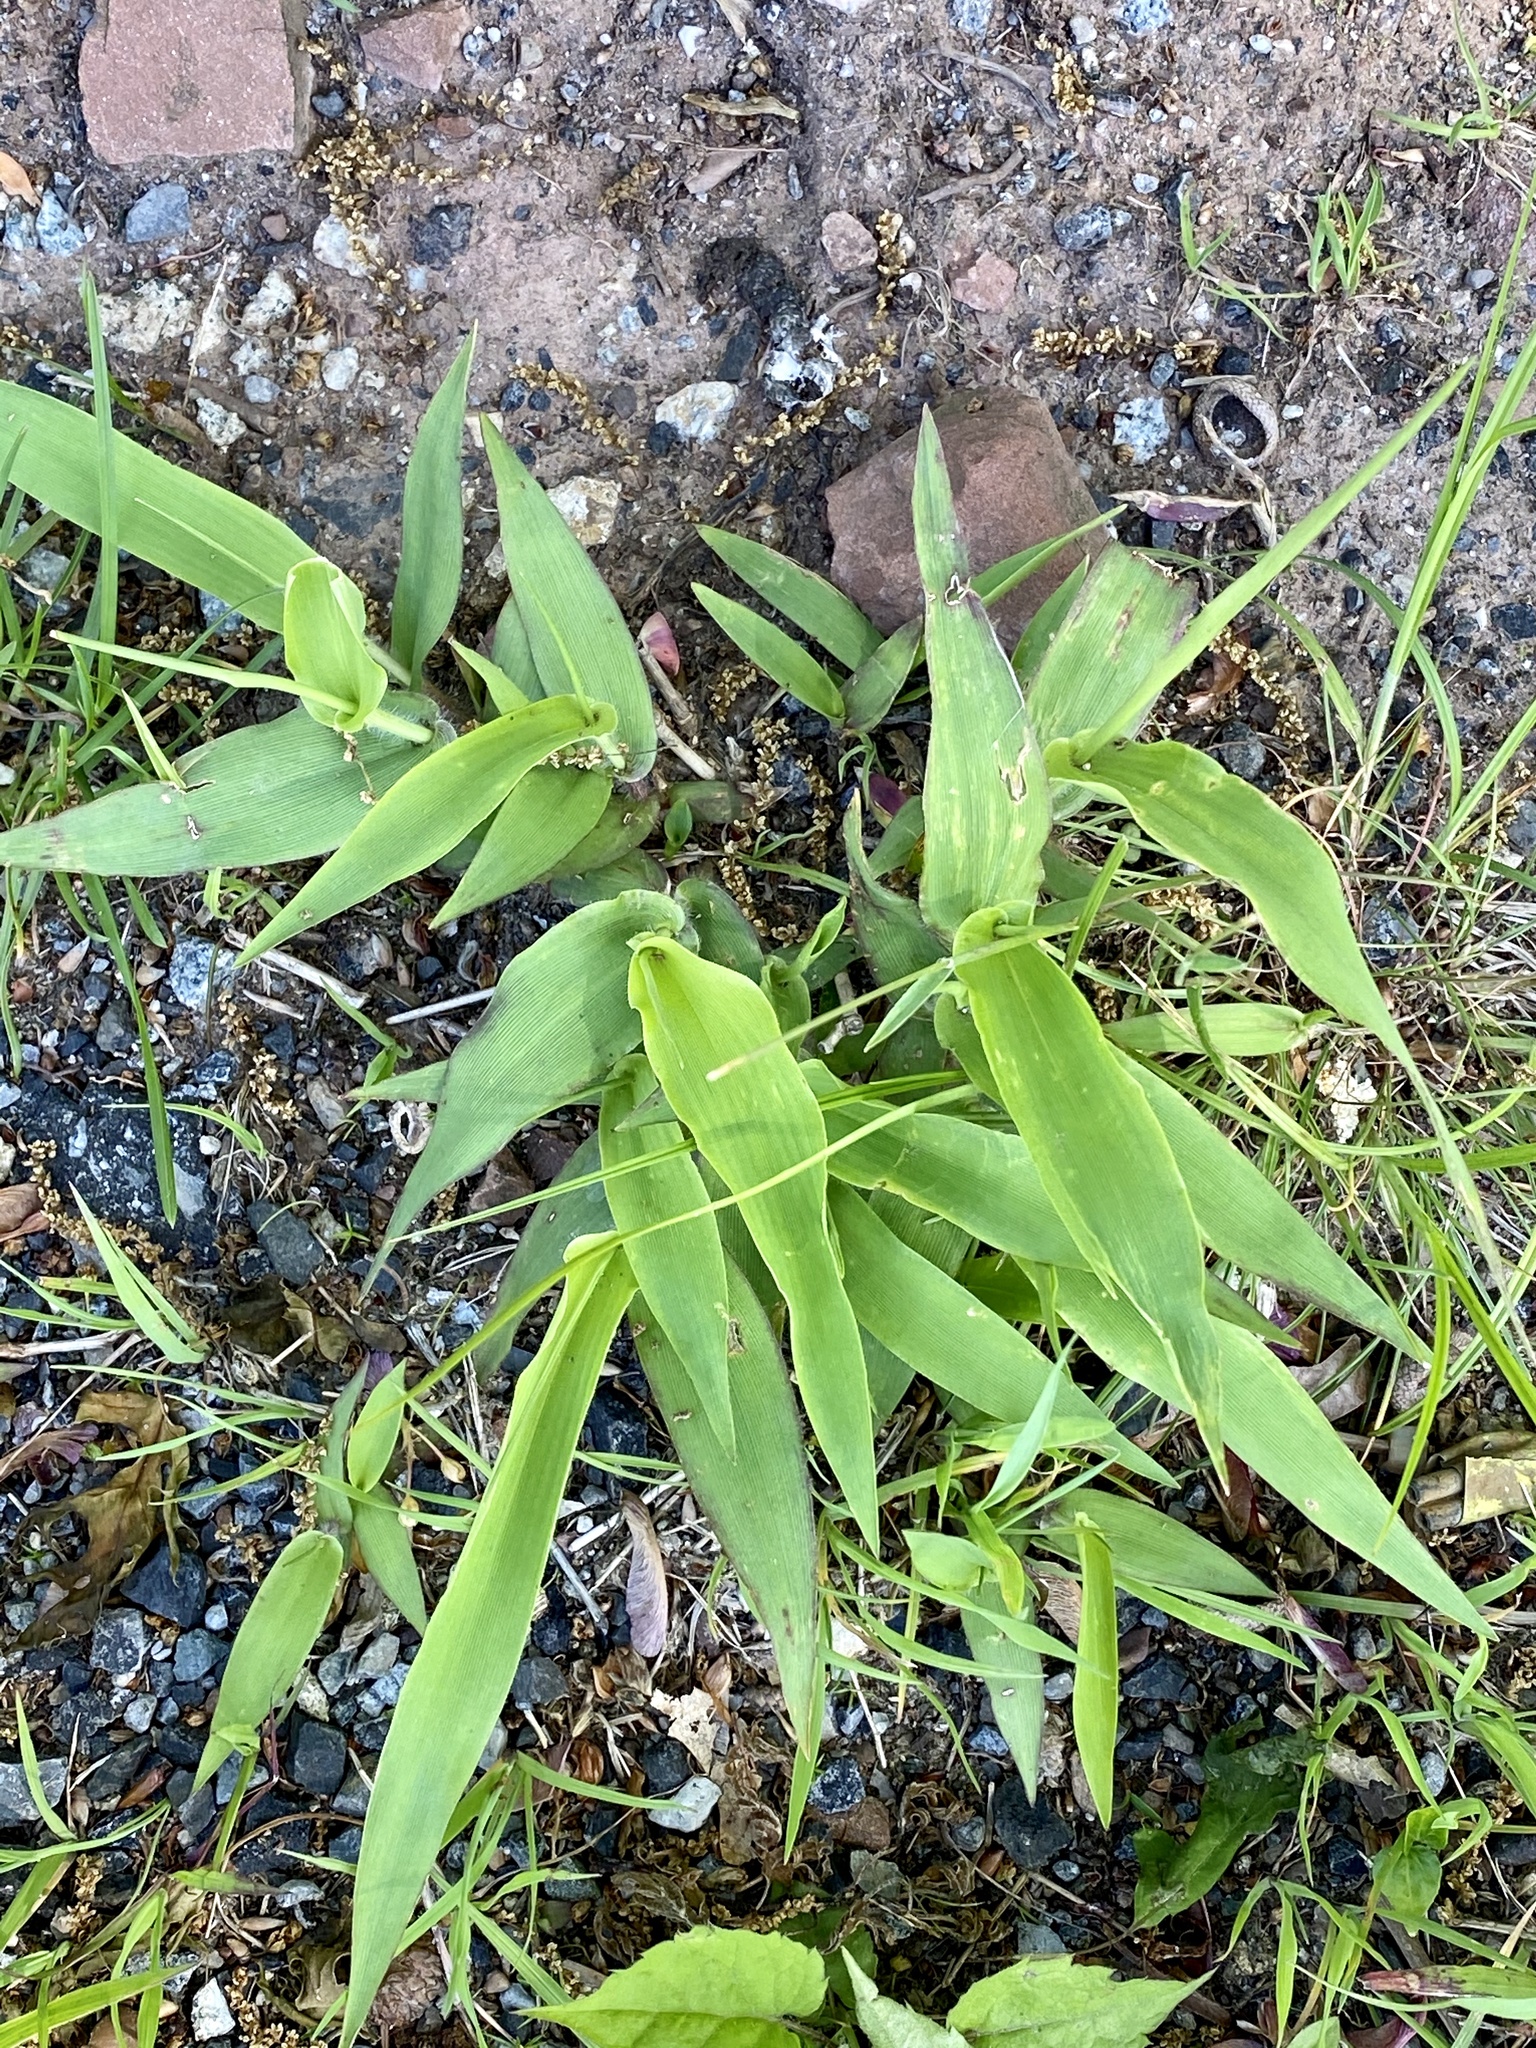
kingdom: Plantae
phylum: Tracheophyta
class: Liliopsida
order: Poales
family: Poaceae
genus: Dichanthelium
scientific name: Dichanthelium clandestinum
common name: Deer-tongue grass
